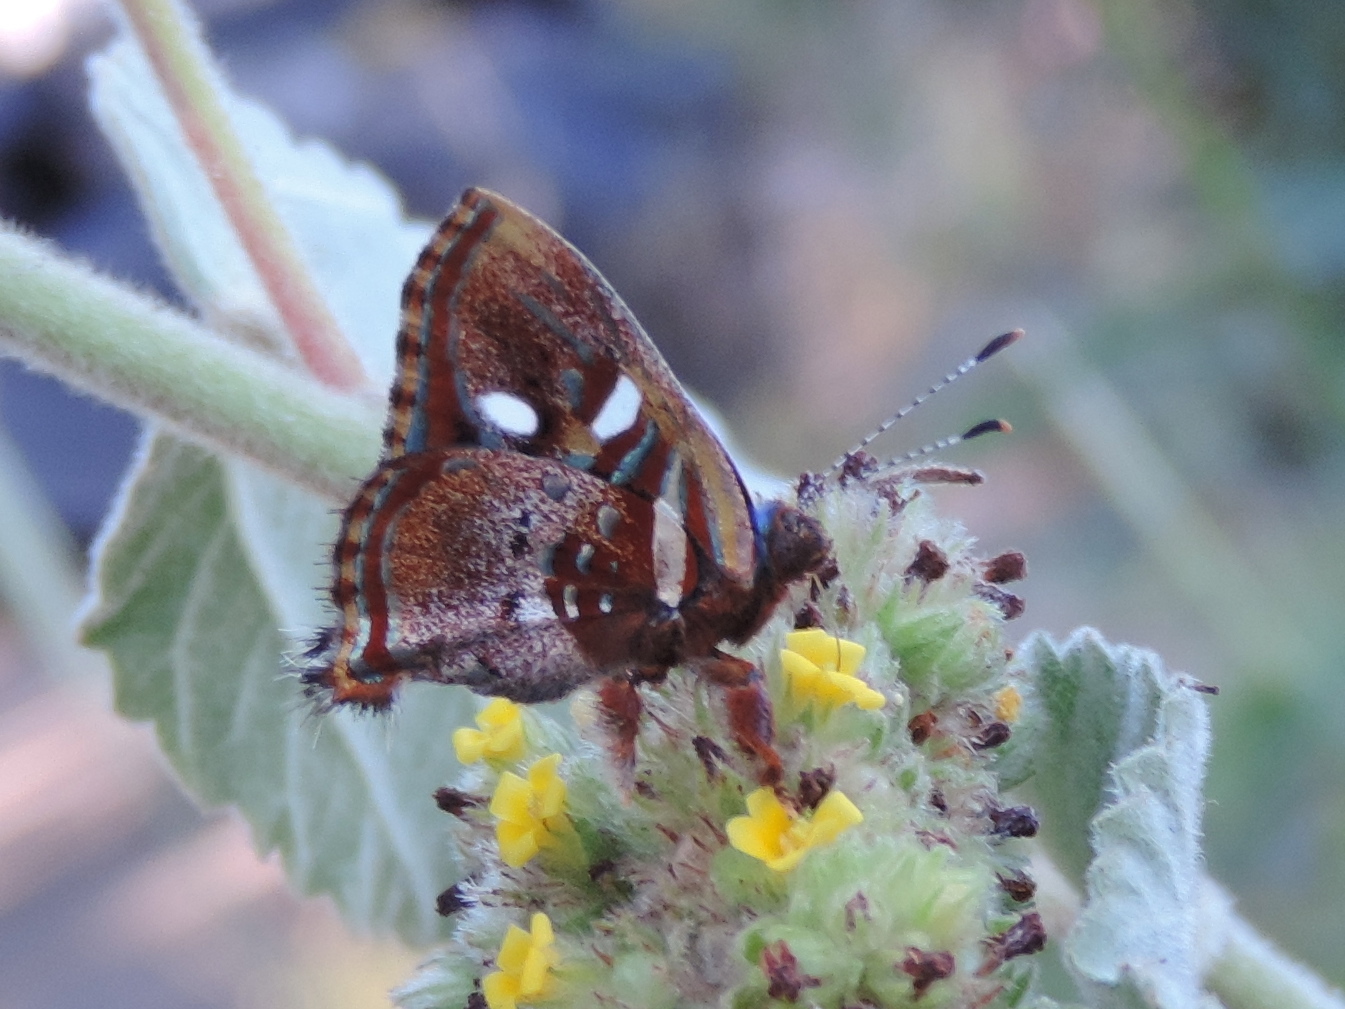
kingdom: Animalia
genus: Anteros
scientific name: Anteros carausius
